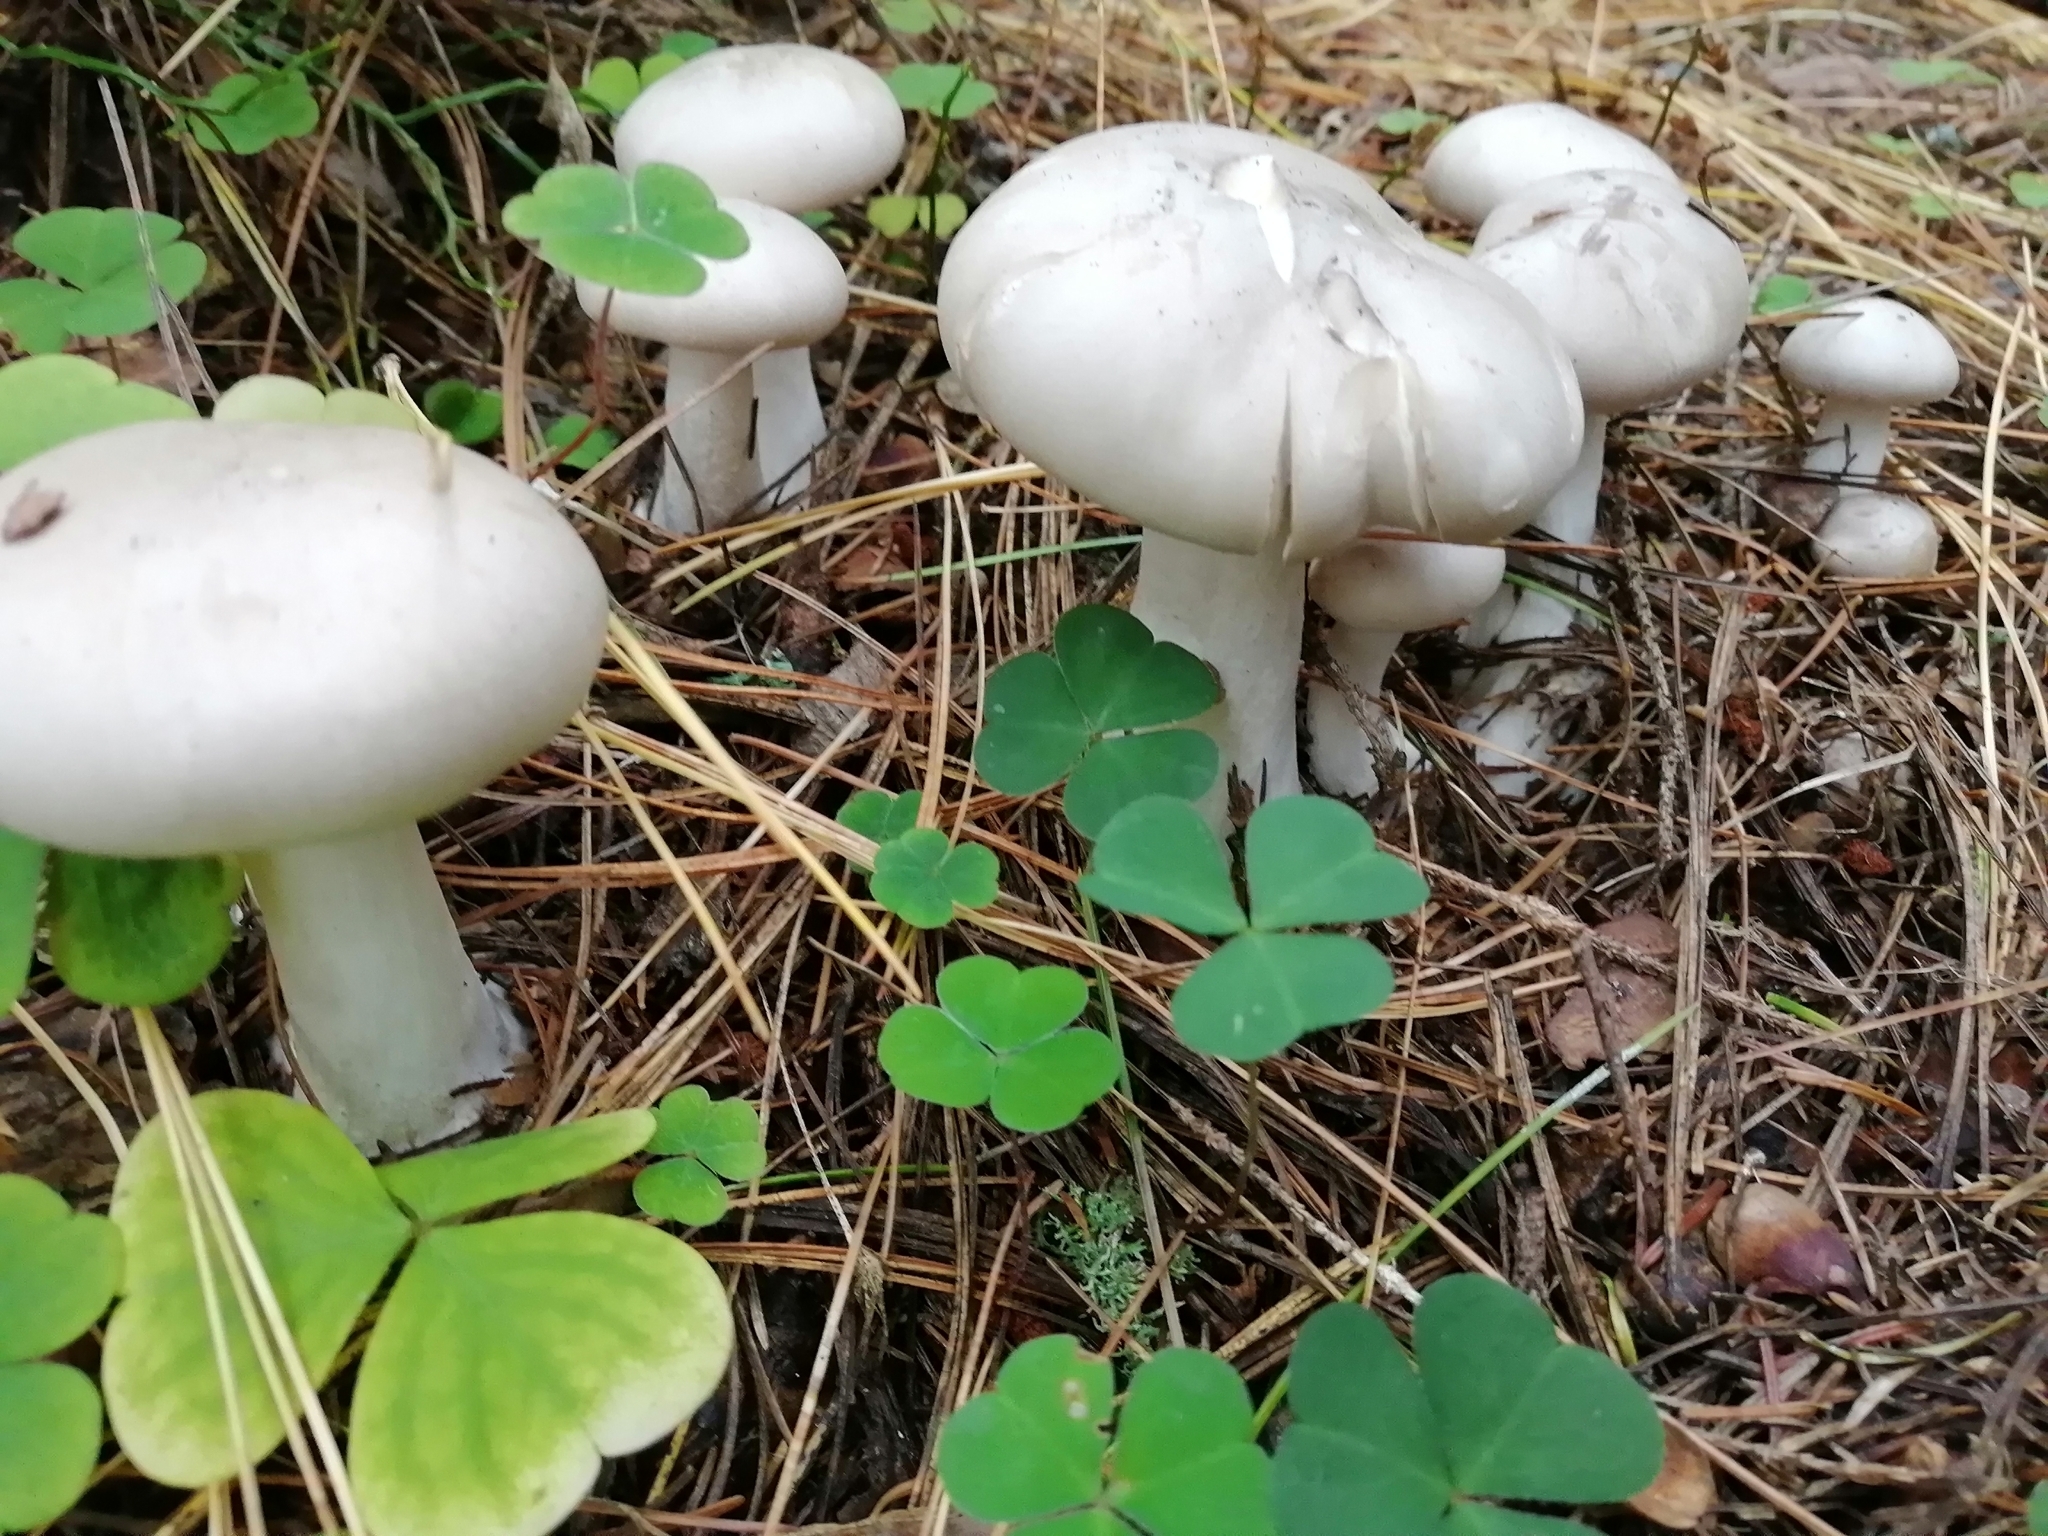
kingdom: Fungi
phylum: Basidiomycota
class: Agaricomycetes
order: Agaricales
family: Tricholomataceae
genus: Clitocybe
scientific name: Clitocybe nebularis
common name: Clouded agaric
